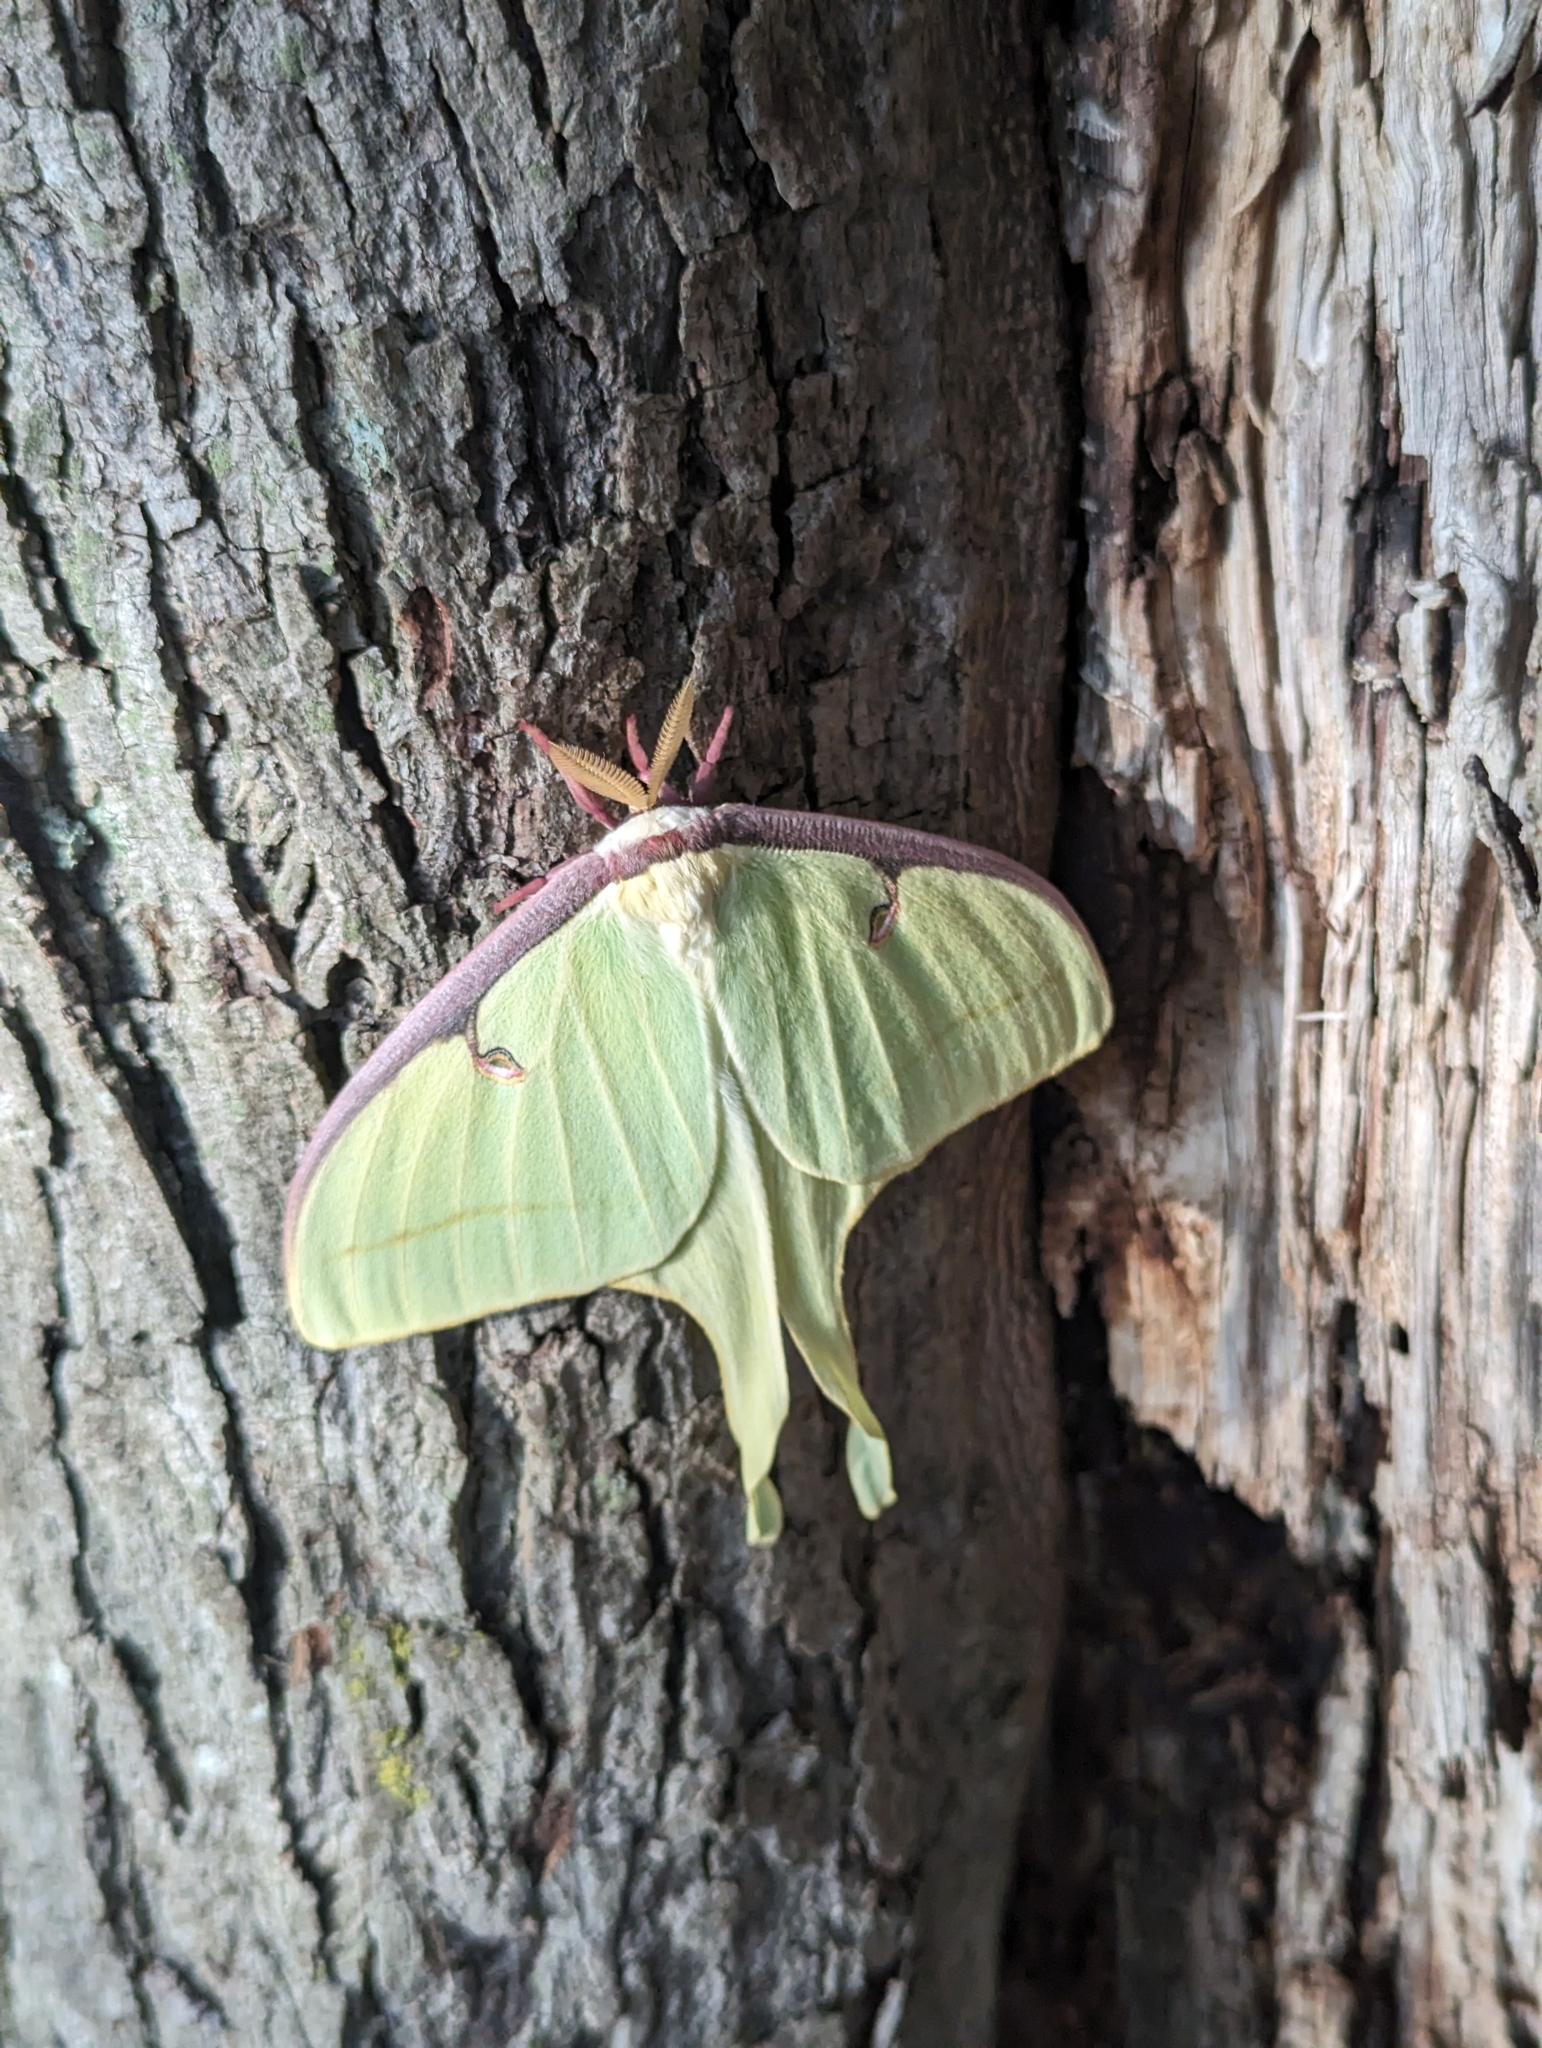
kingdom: Animalia
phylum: Arthropoda
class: Insecta
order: Lepidoptera
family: Saturniidae
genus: Actias
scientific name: Actias luna
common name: Luna moth
